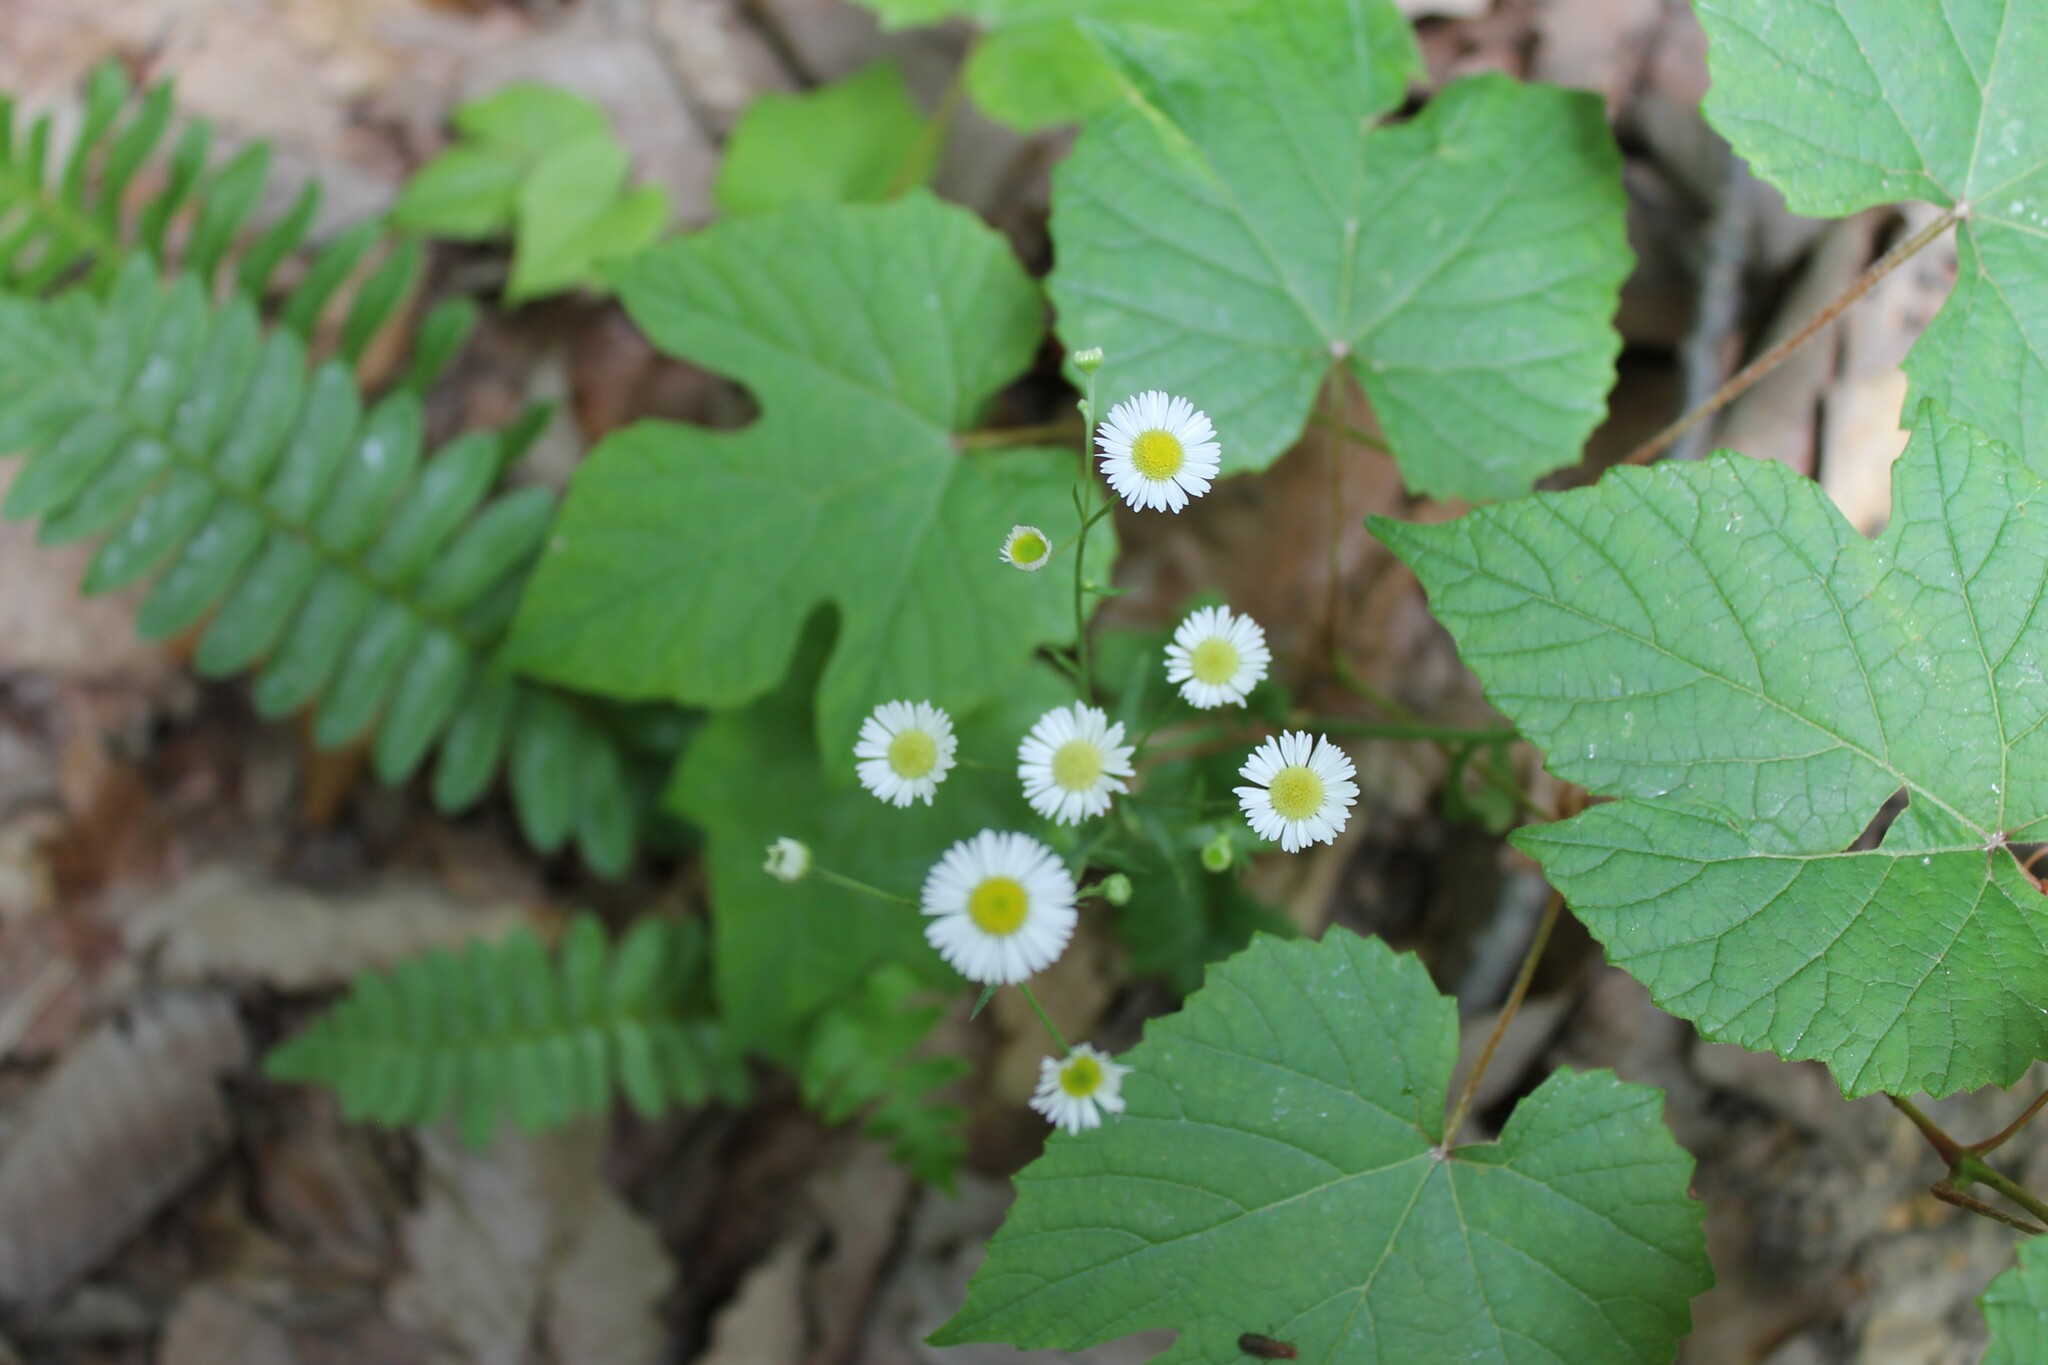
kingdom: Plantae
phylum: Tracheophyta
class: Magnoliopsida
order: Asterales
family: Asteraceae
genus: Erigeron
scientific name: Erigeron strigosus
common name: Common eastern fleabane
